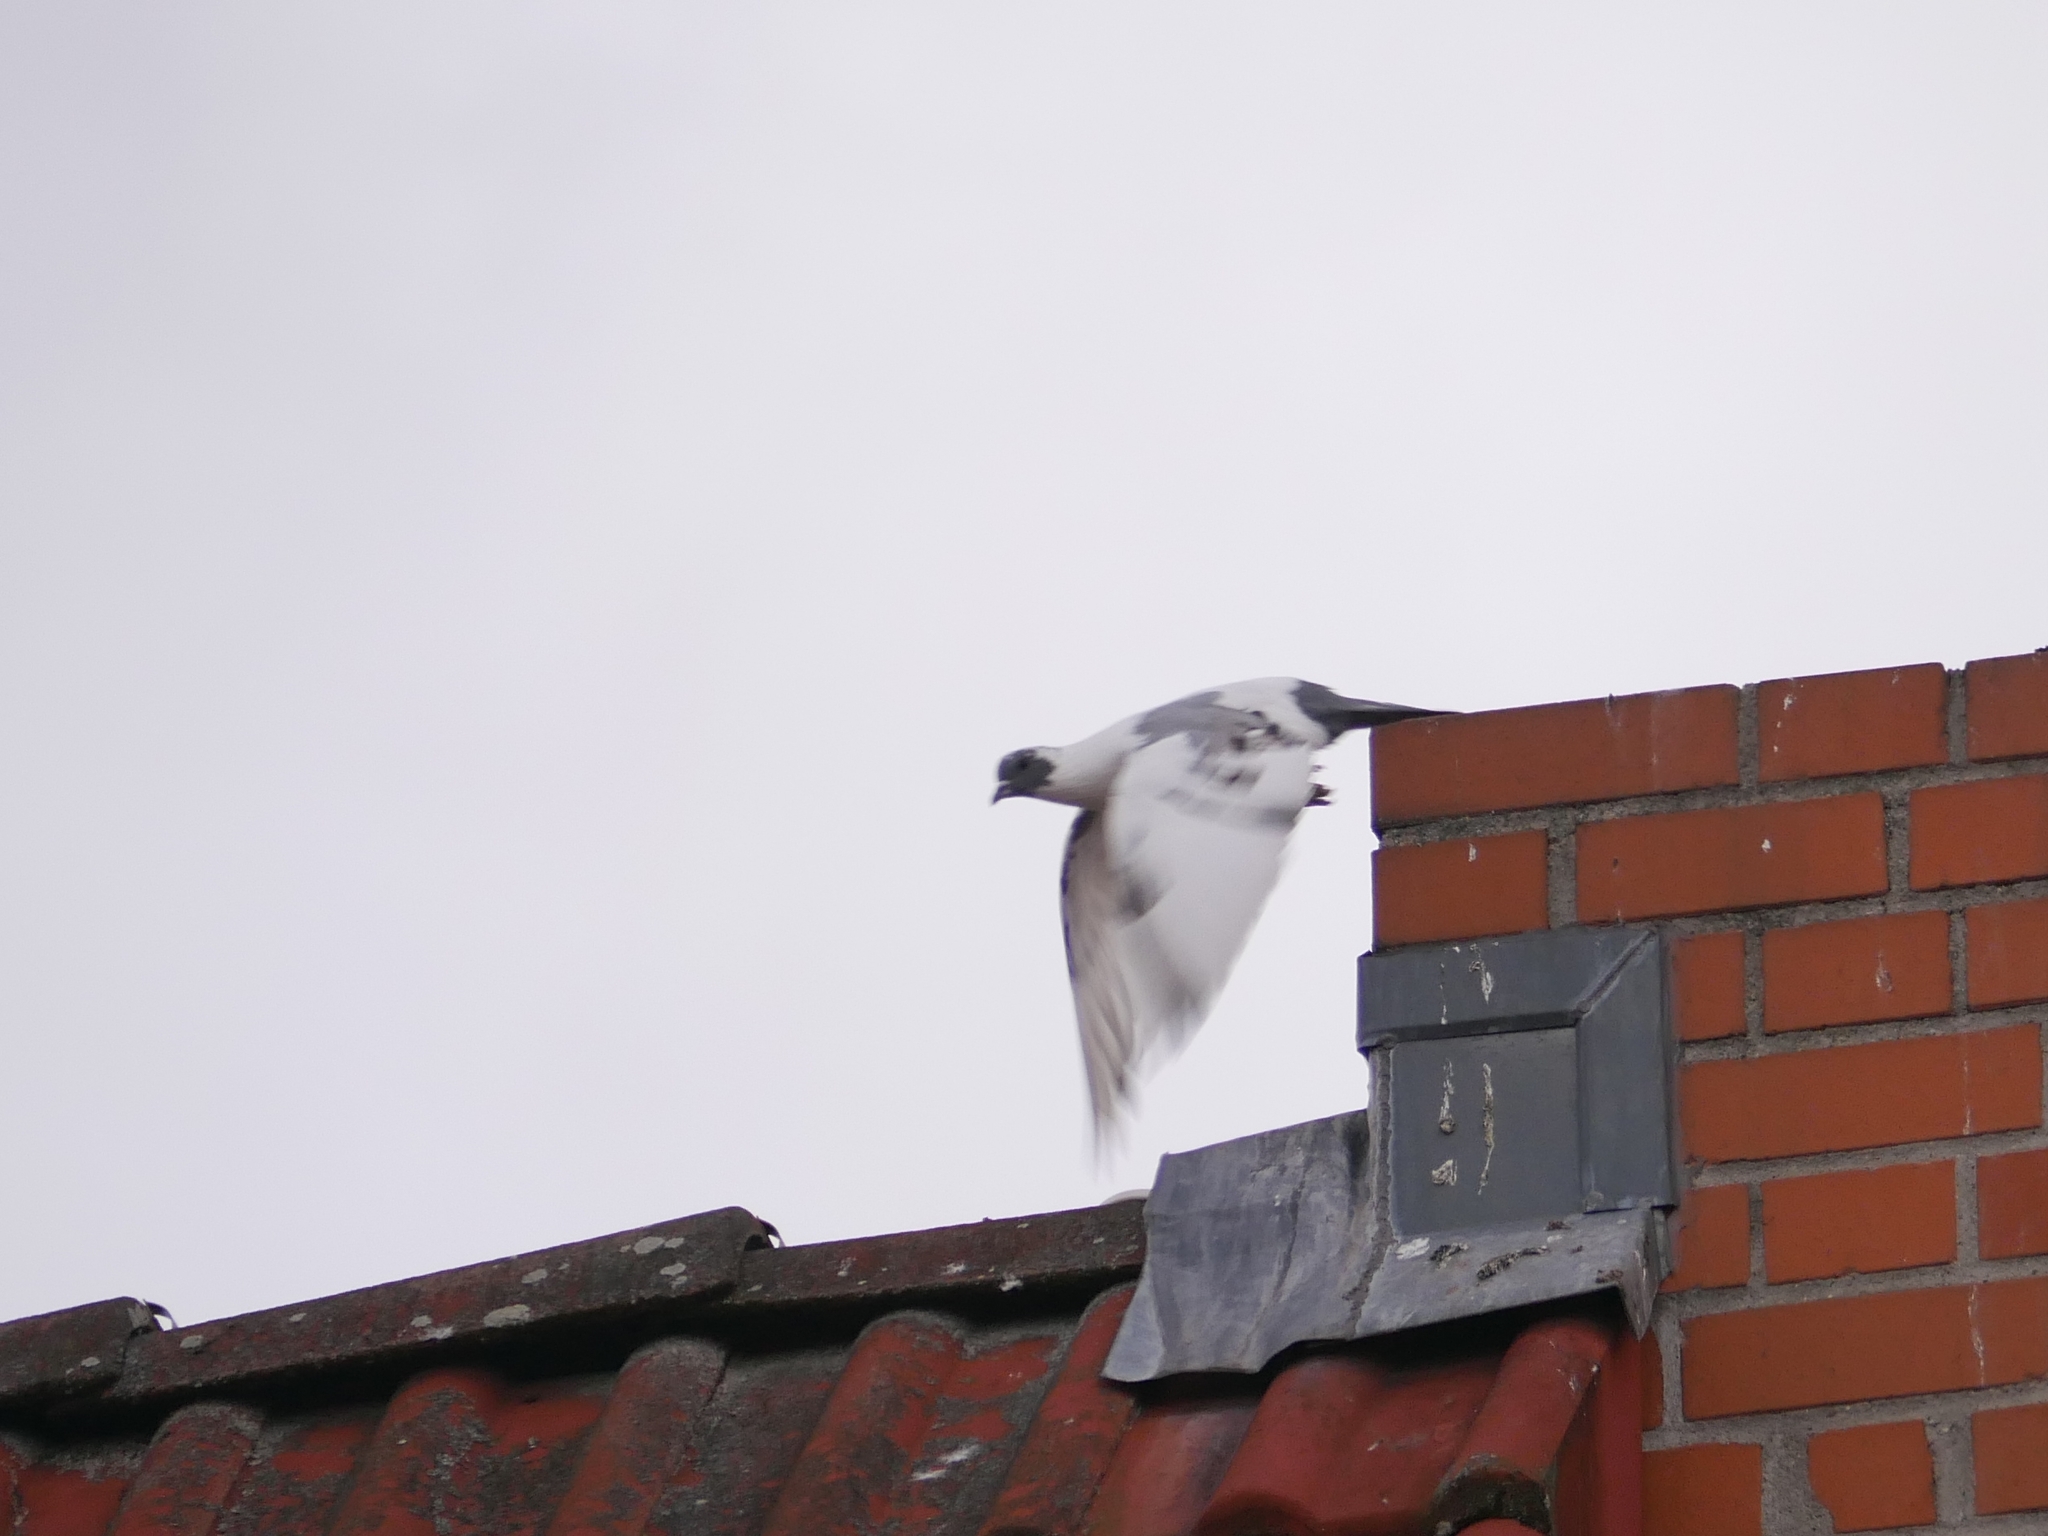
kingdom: Animalia
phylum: Chordata
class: Aves
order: Columbiformes
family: Columbidae
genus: Columba
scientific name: Columba livia
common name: Rock pigeon
